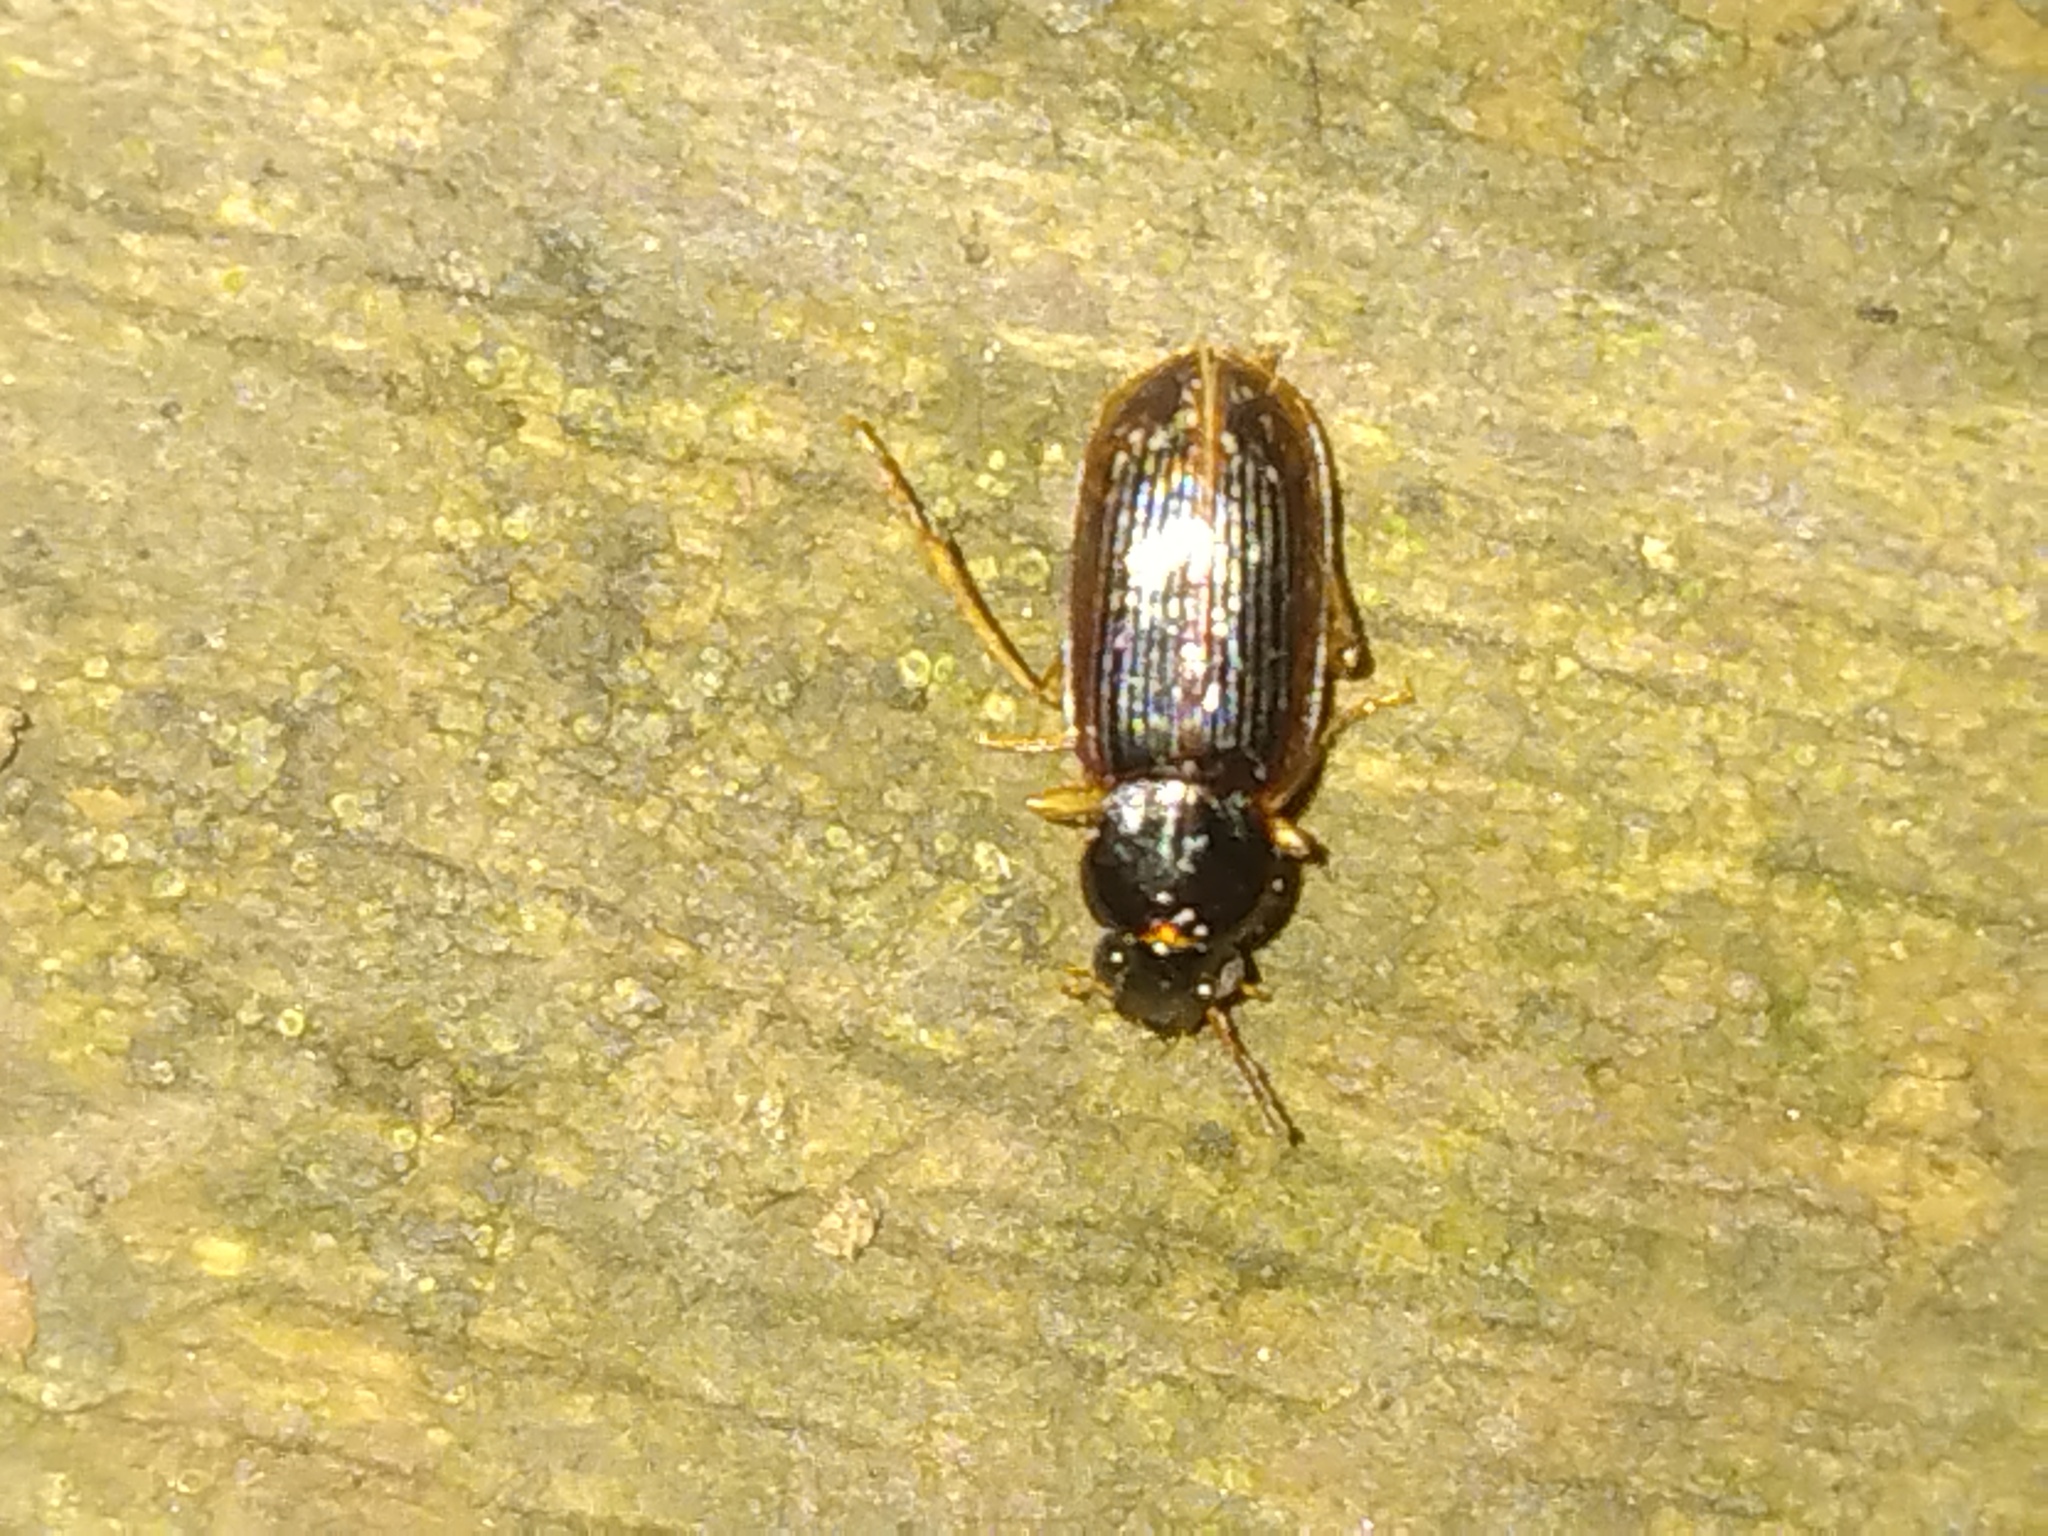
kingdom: Animalia
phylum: Arthropoda
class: Insecta
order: Coleoptera
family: Carabidae
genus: Stenolophus
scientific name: Stenolophus ochropezus
